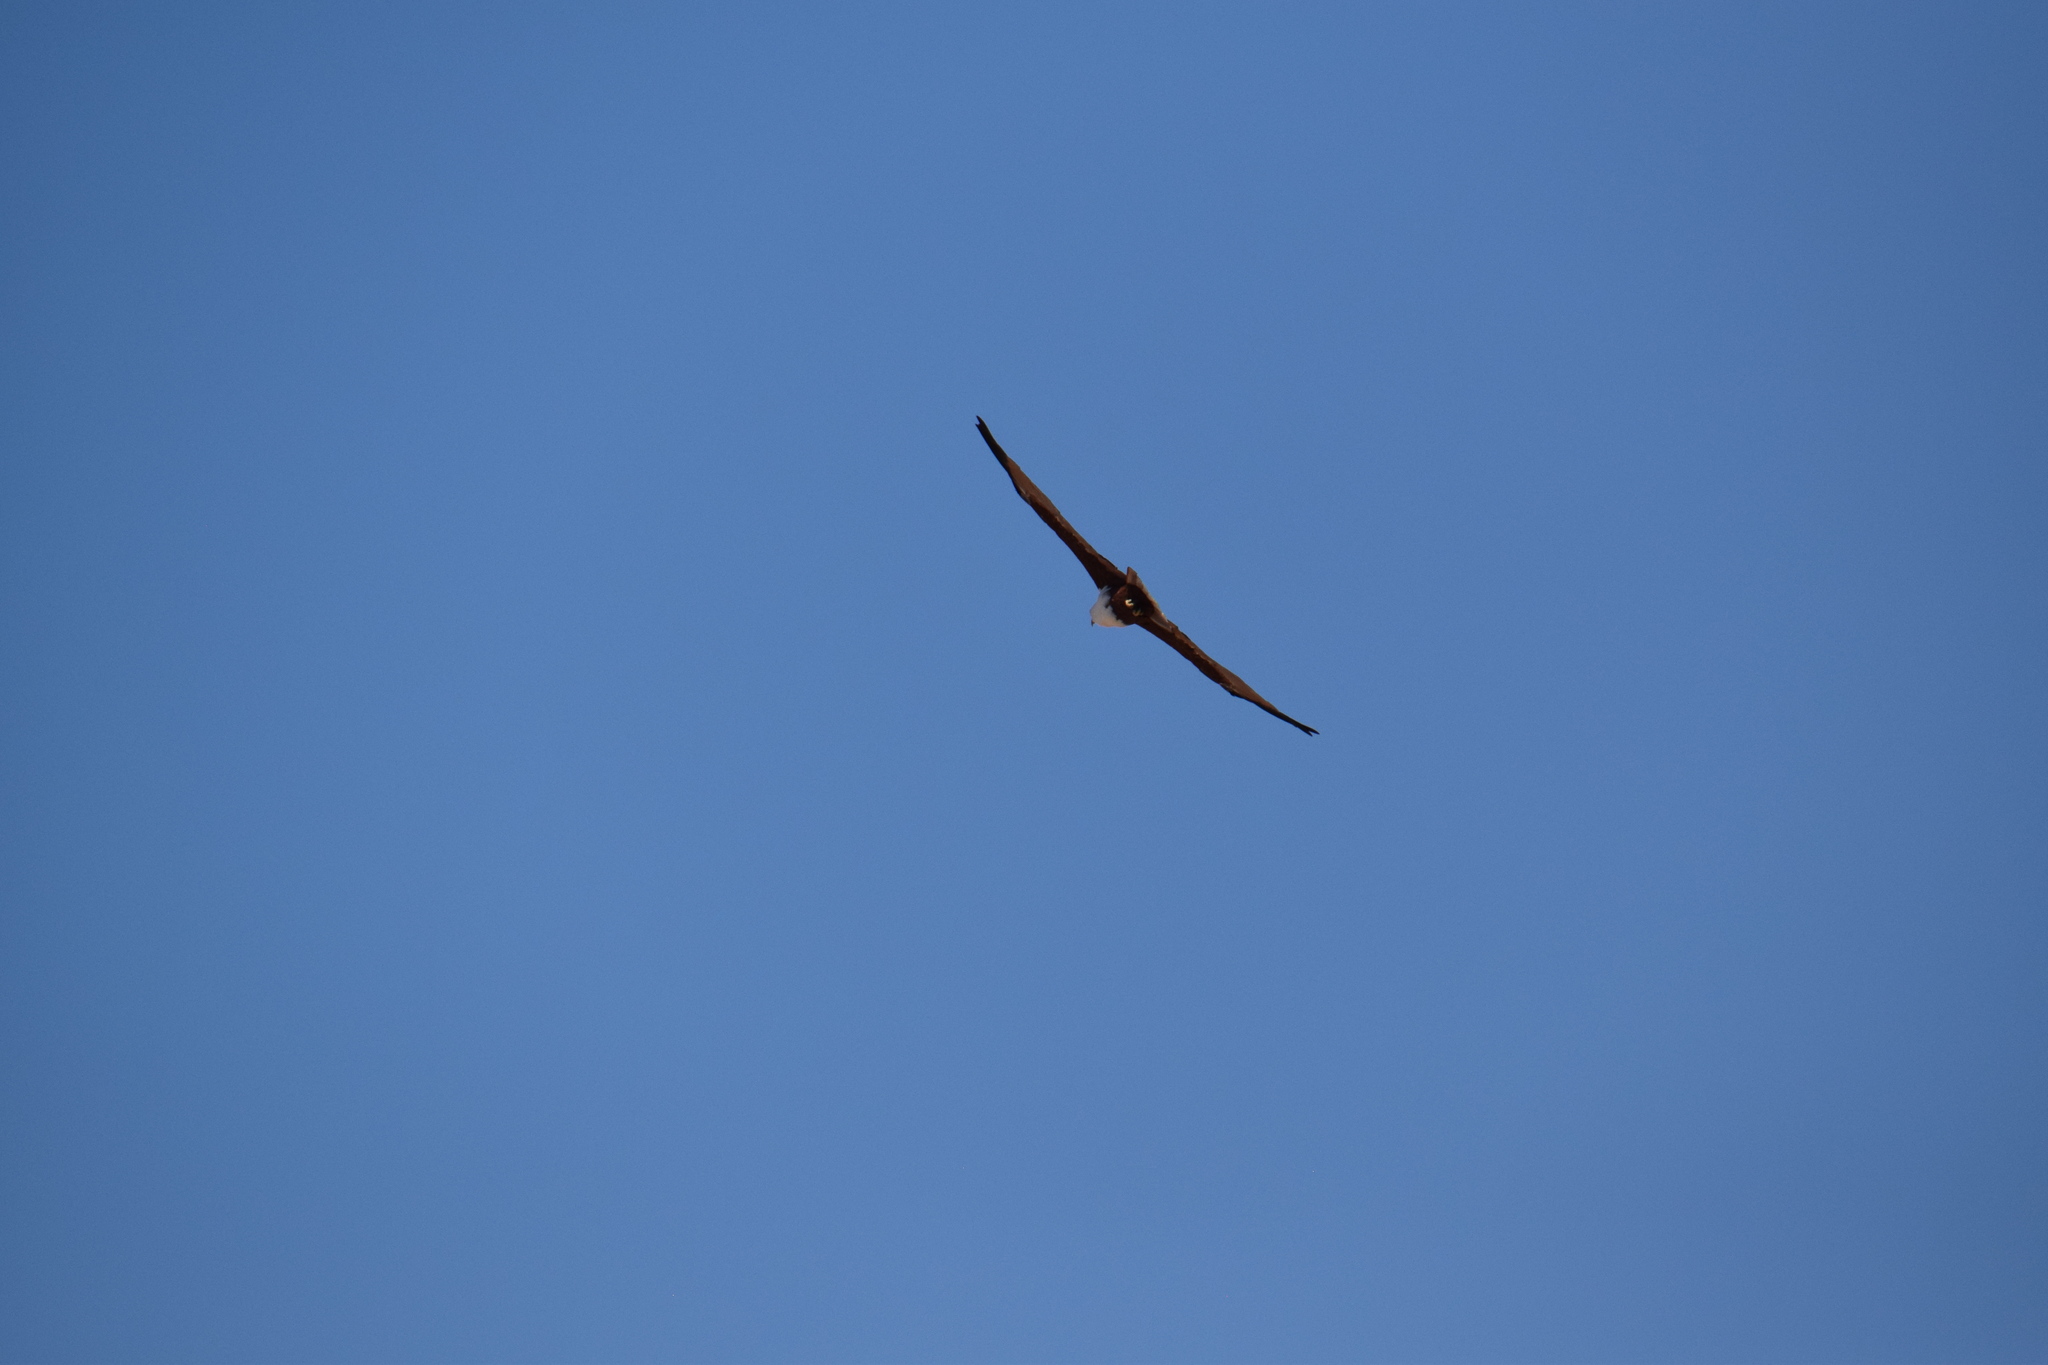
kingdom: Animalia
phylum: Chordata
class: Aves
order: Accipitriformes
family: Accipitridae
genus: Haliastur
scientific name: Haliastur indus
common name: Brahminy kite
